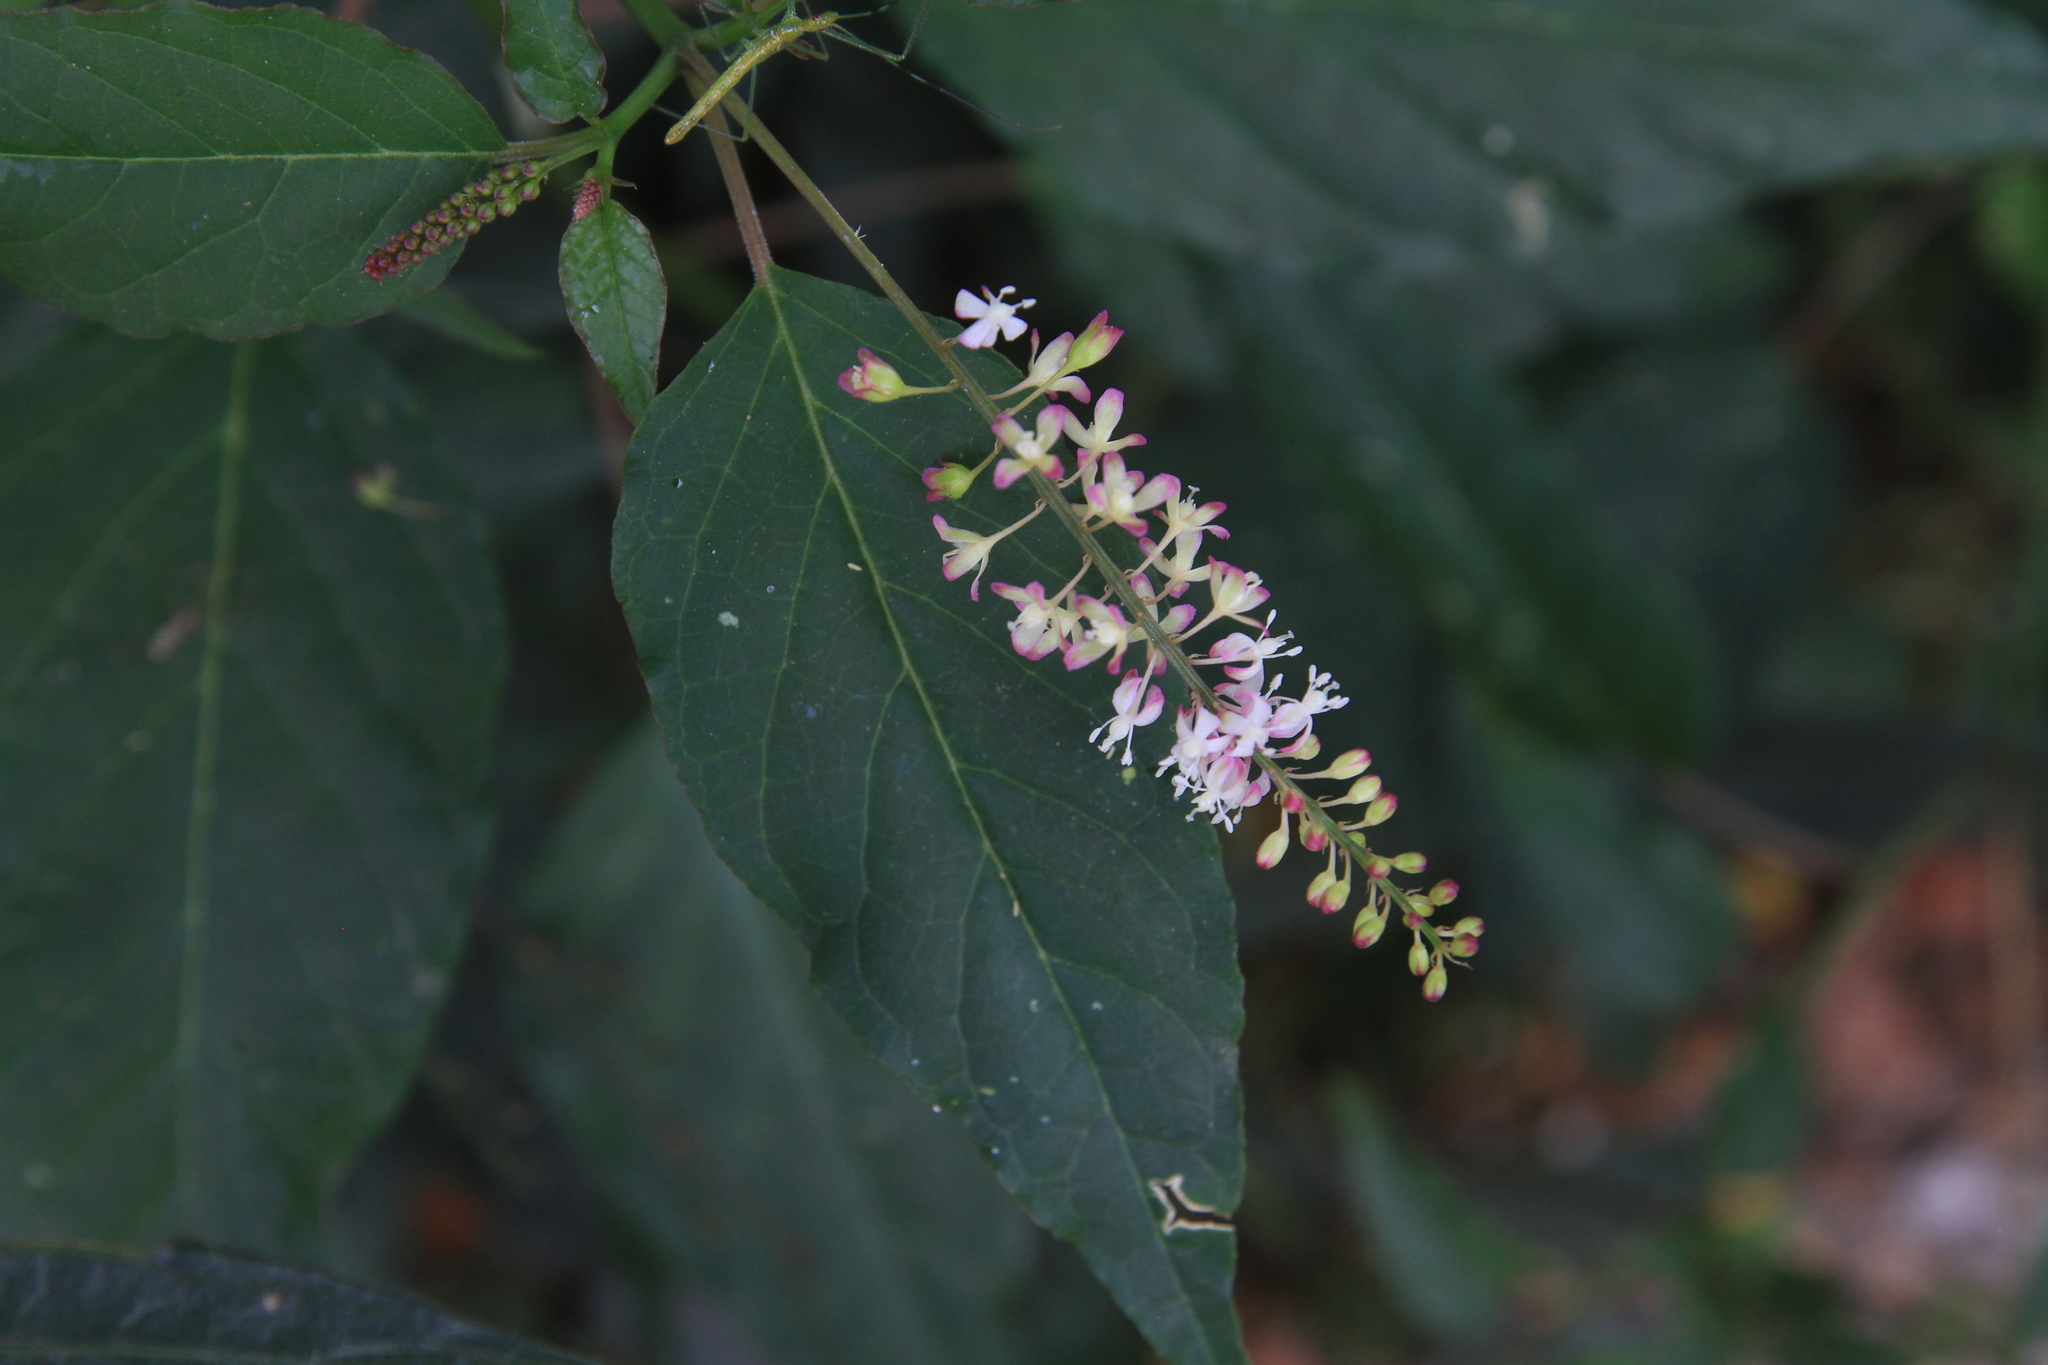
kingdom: Plantae
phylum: Tracheophyta
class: Magnoliopsida
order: Caryophyllales
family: Phytolaccaceae
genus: Rivina
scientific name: Rivina humilis
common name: Rougeplant
